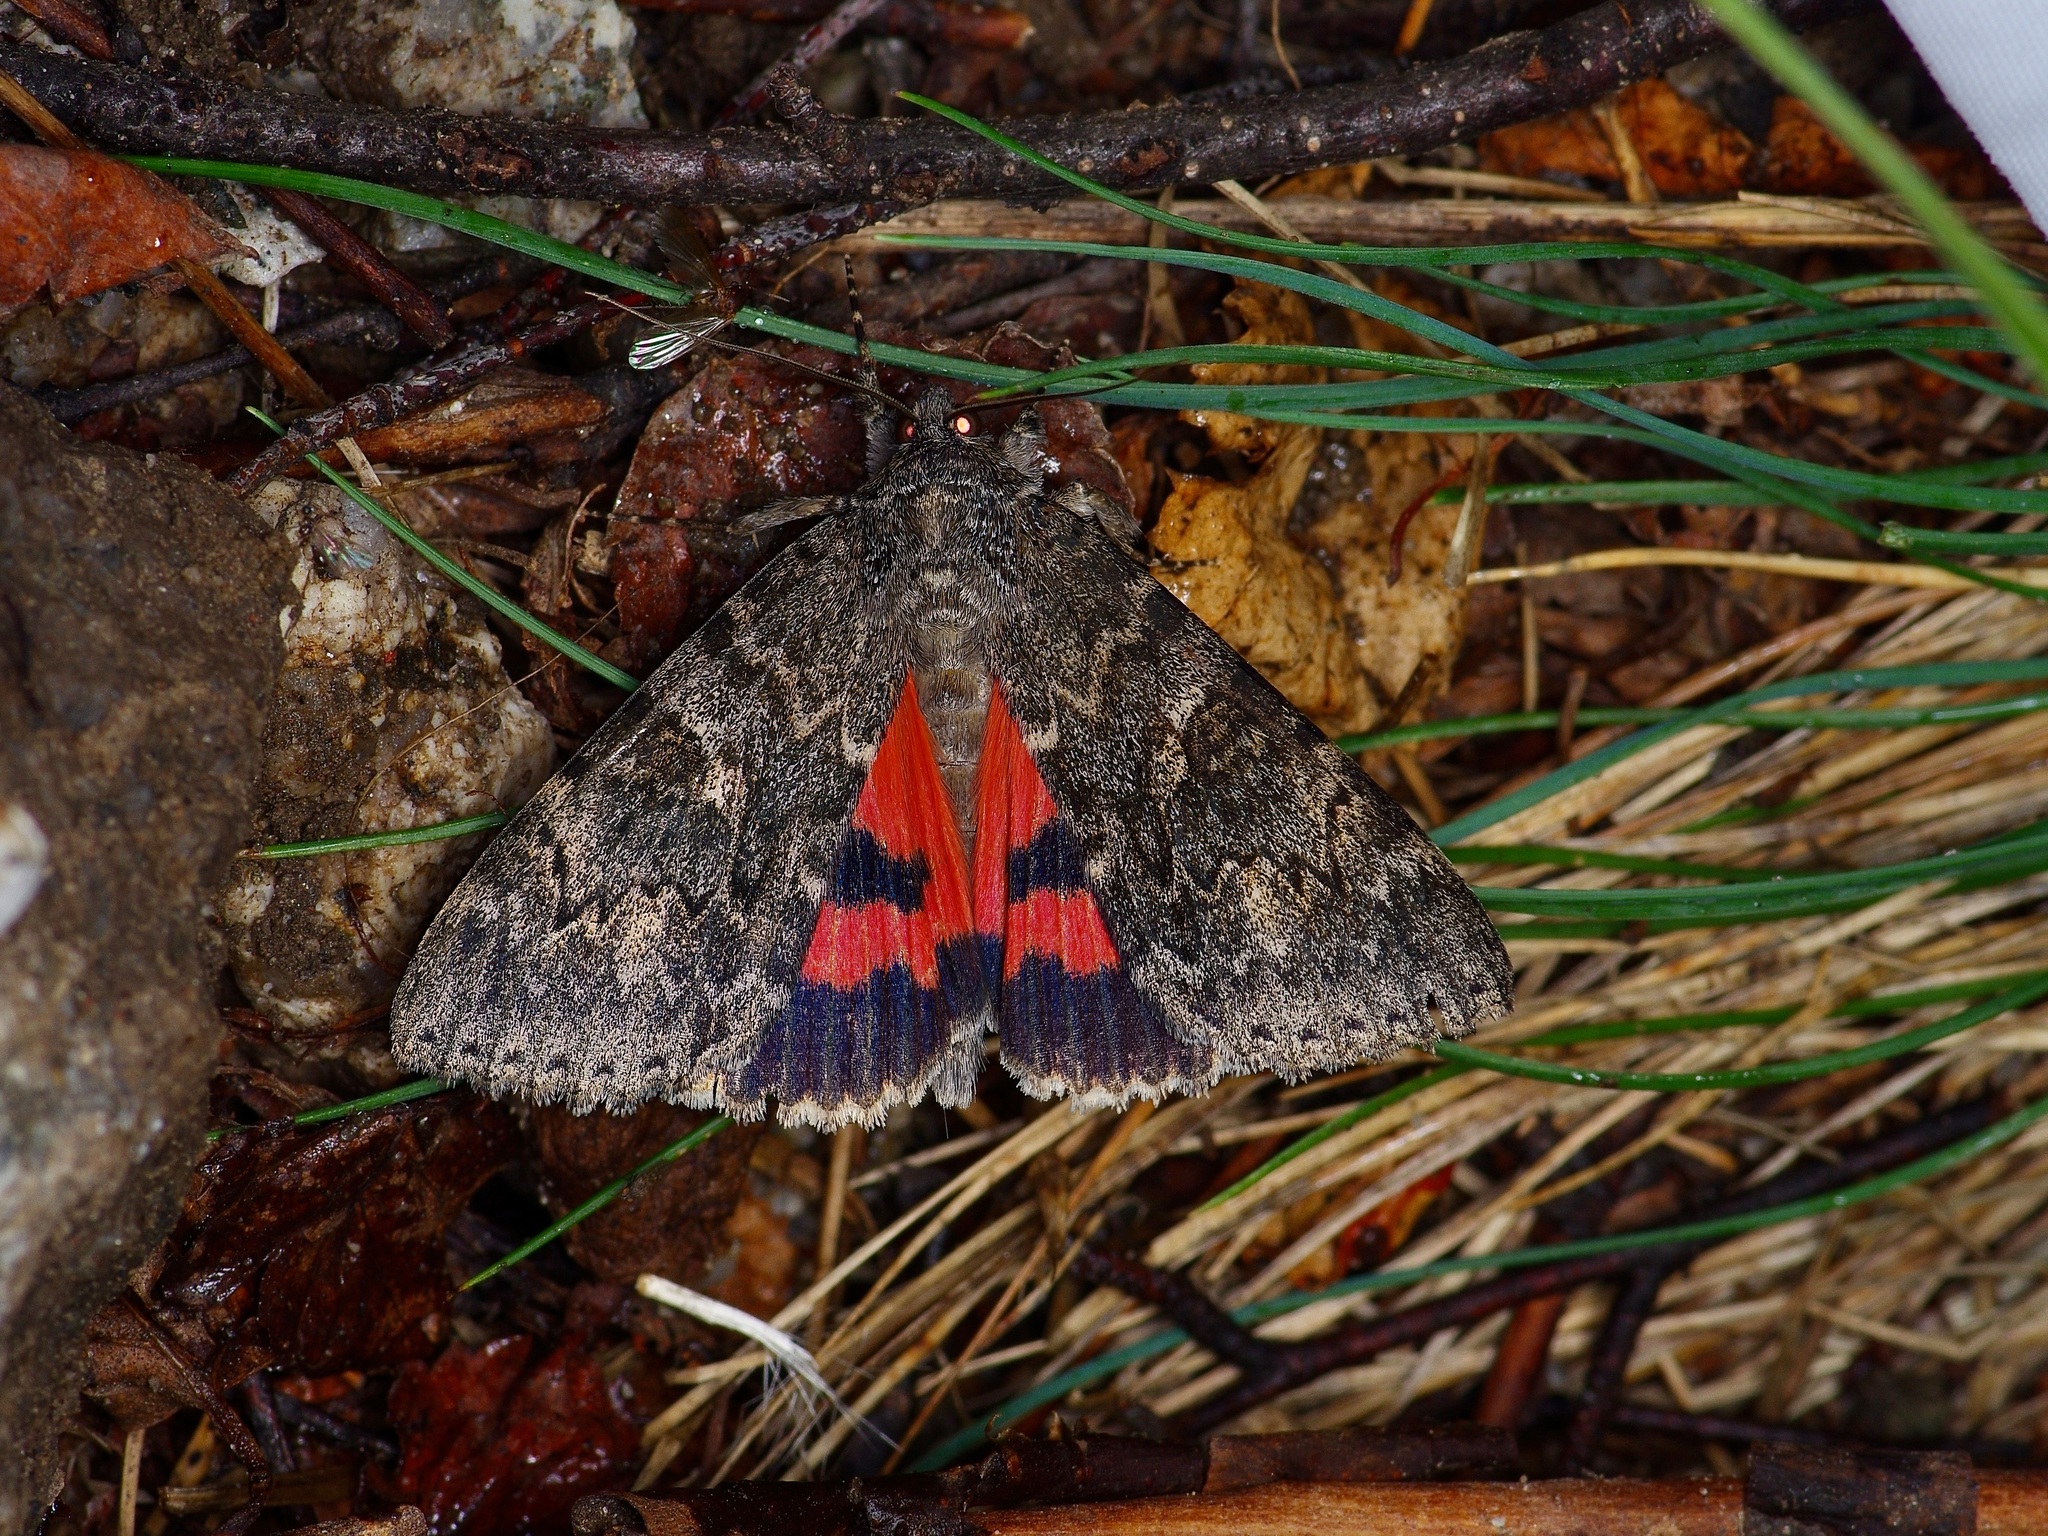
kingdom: Animalia
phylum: Arthropoda
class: Insecta
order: Lepidoptera
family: Erebidae
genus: Catocala
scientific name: Catocala californica
